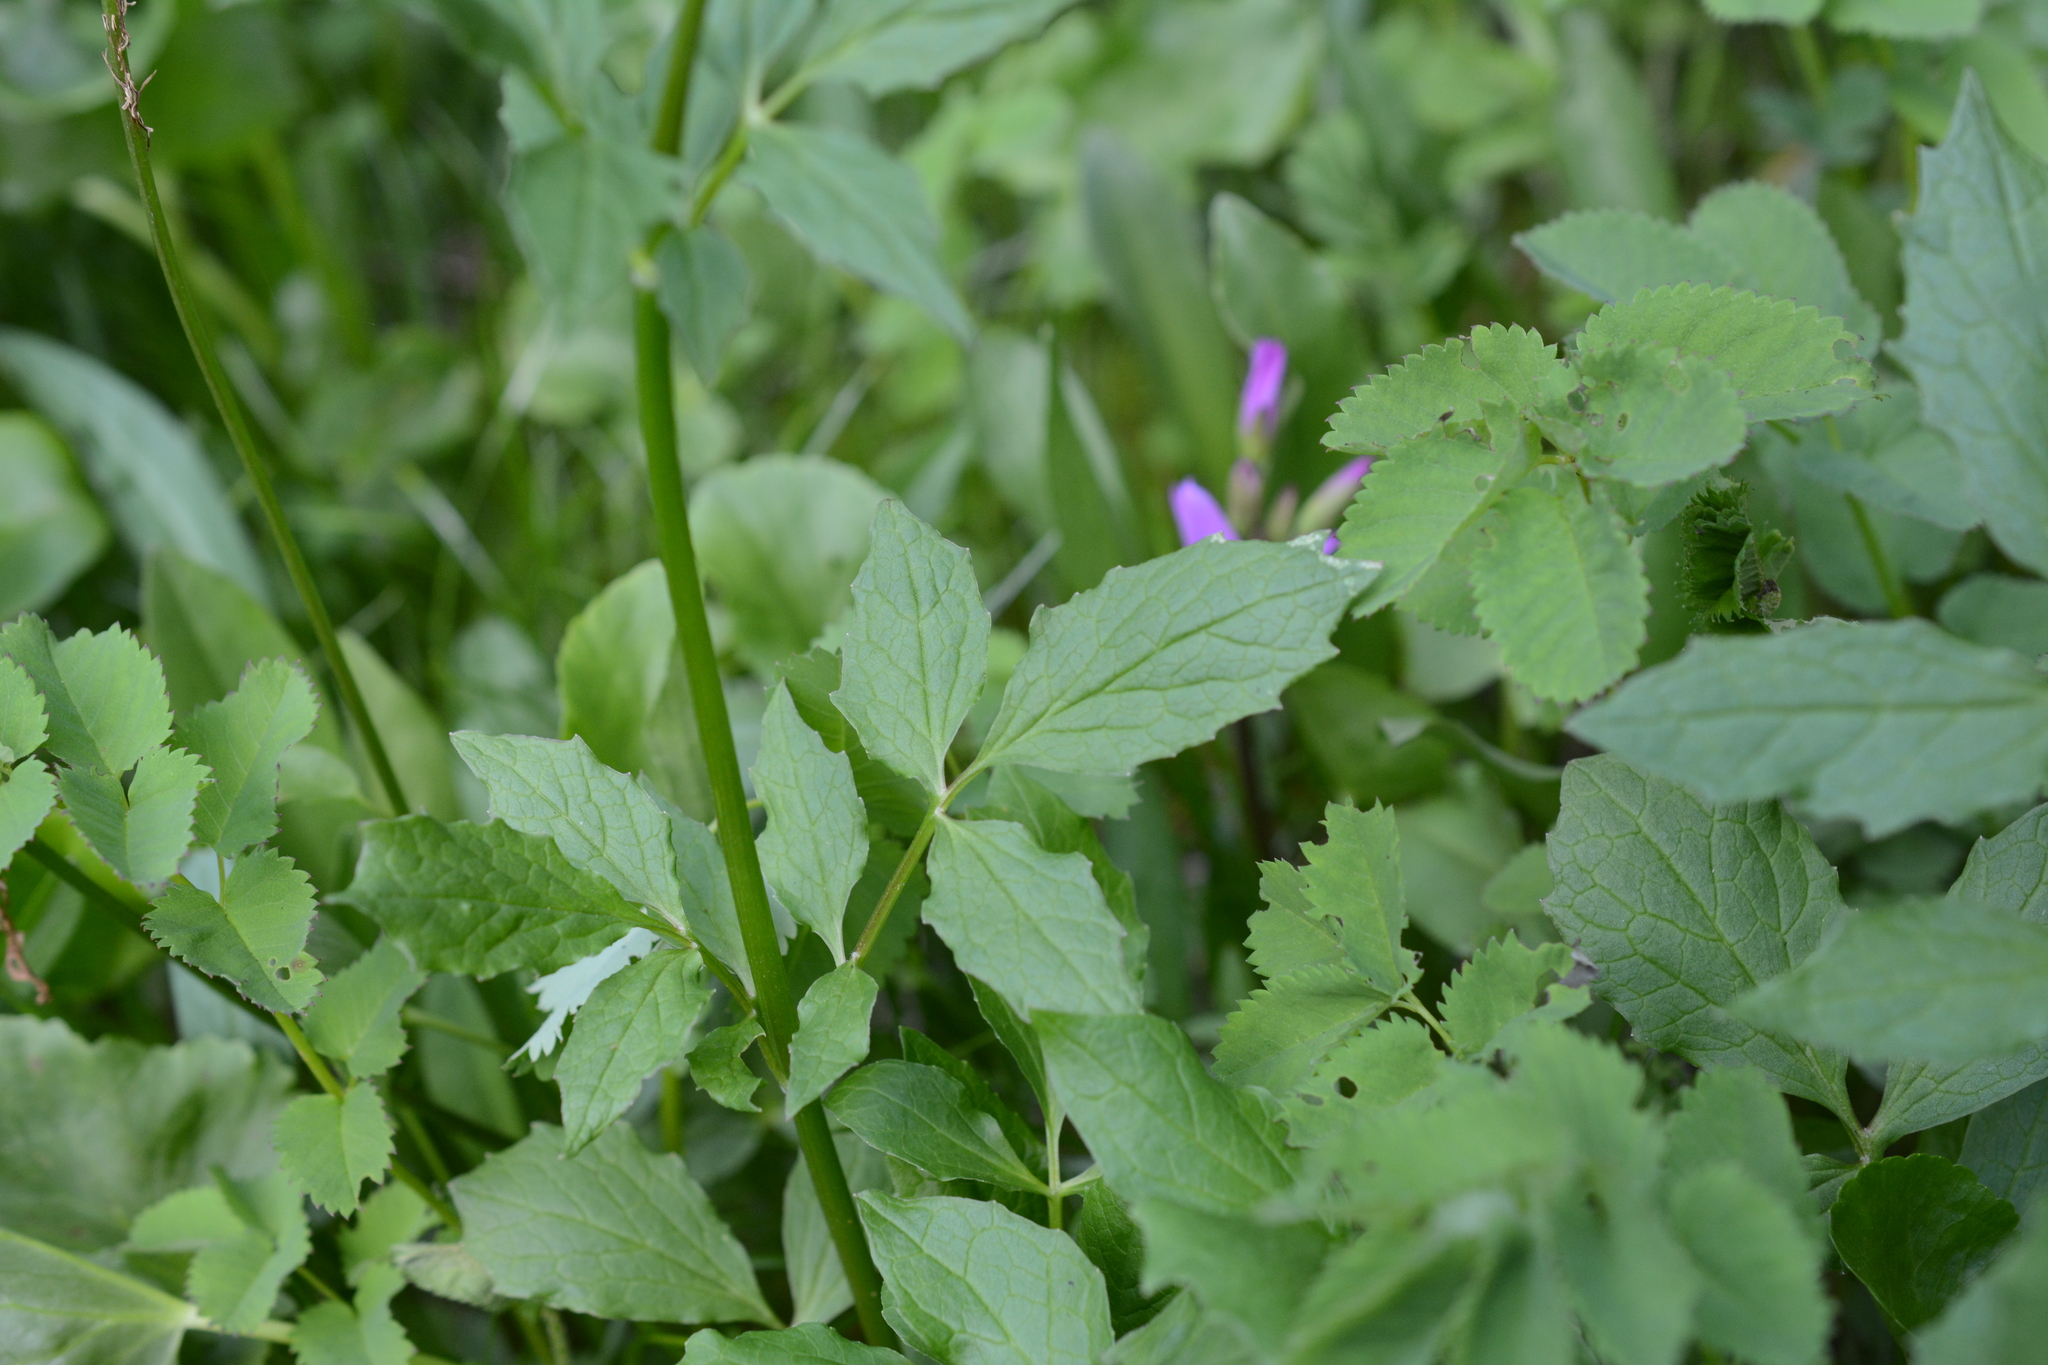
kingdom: Plantae
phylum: Tracheophyta
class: Magnoliopsida
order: Dipsacales
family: Caprifoliaceae
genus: Valeriana
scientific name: Valeriana sitchensis
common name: Pacific valerian
